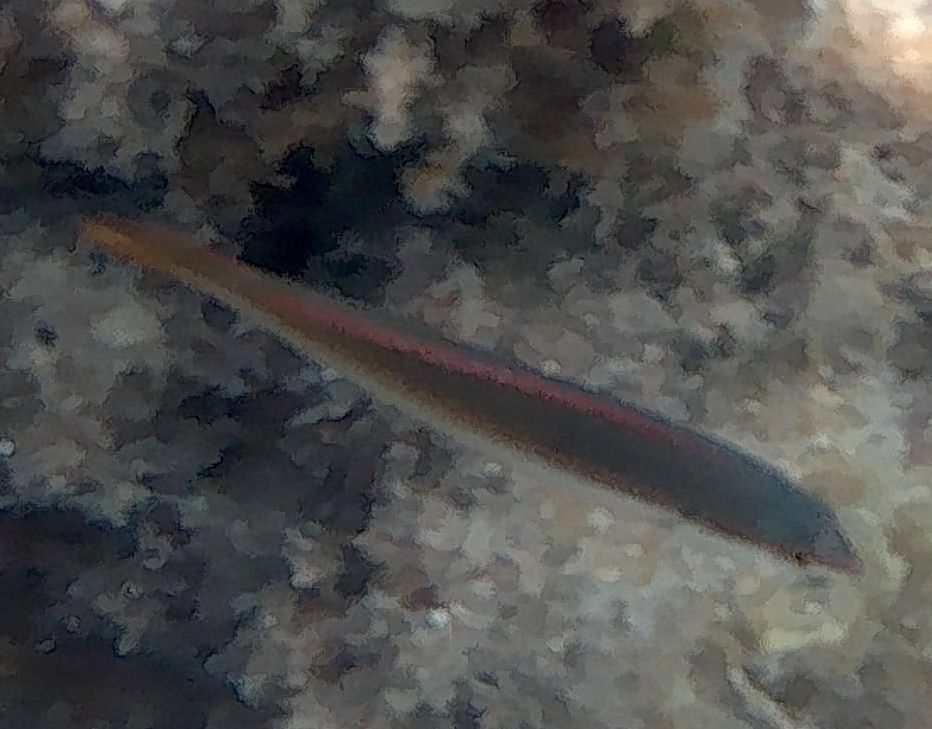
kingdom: Animalia
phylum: Chordata
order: Perciformes
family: Labridae
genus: Coris
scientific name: Coris julis
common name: Rainbow wrasse
